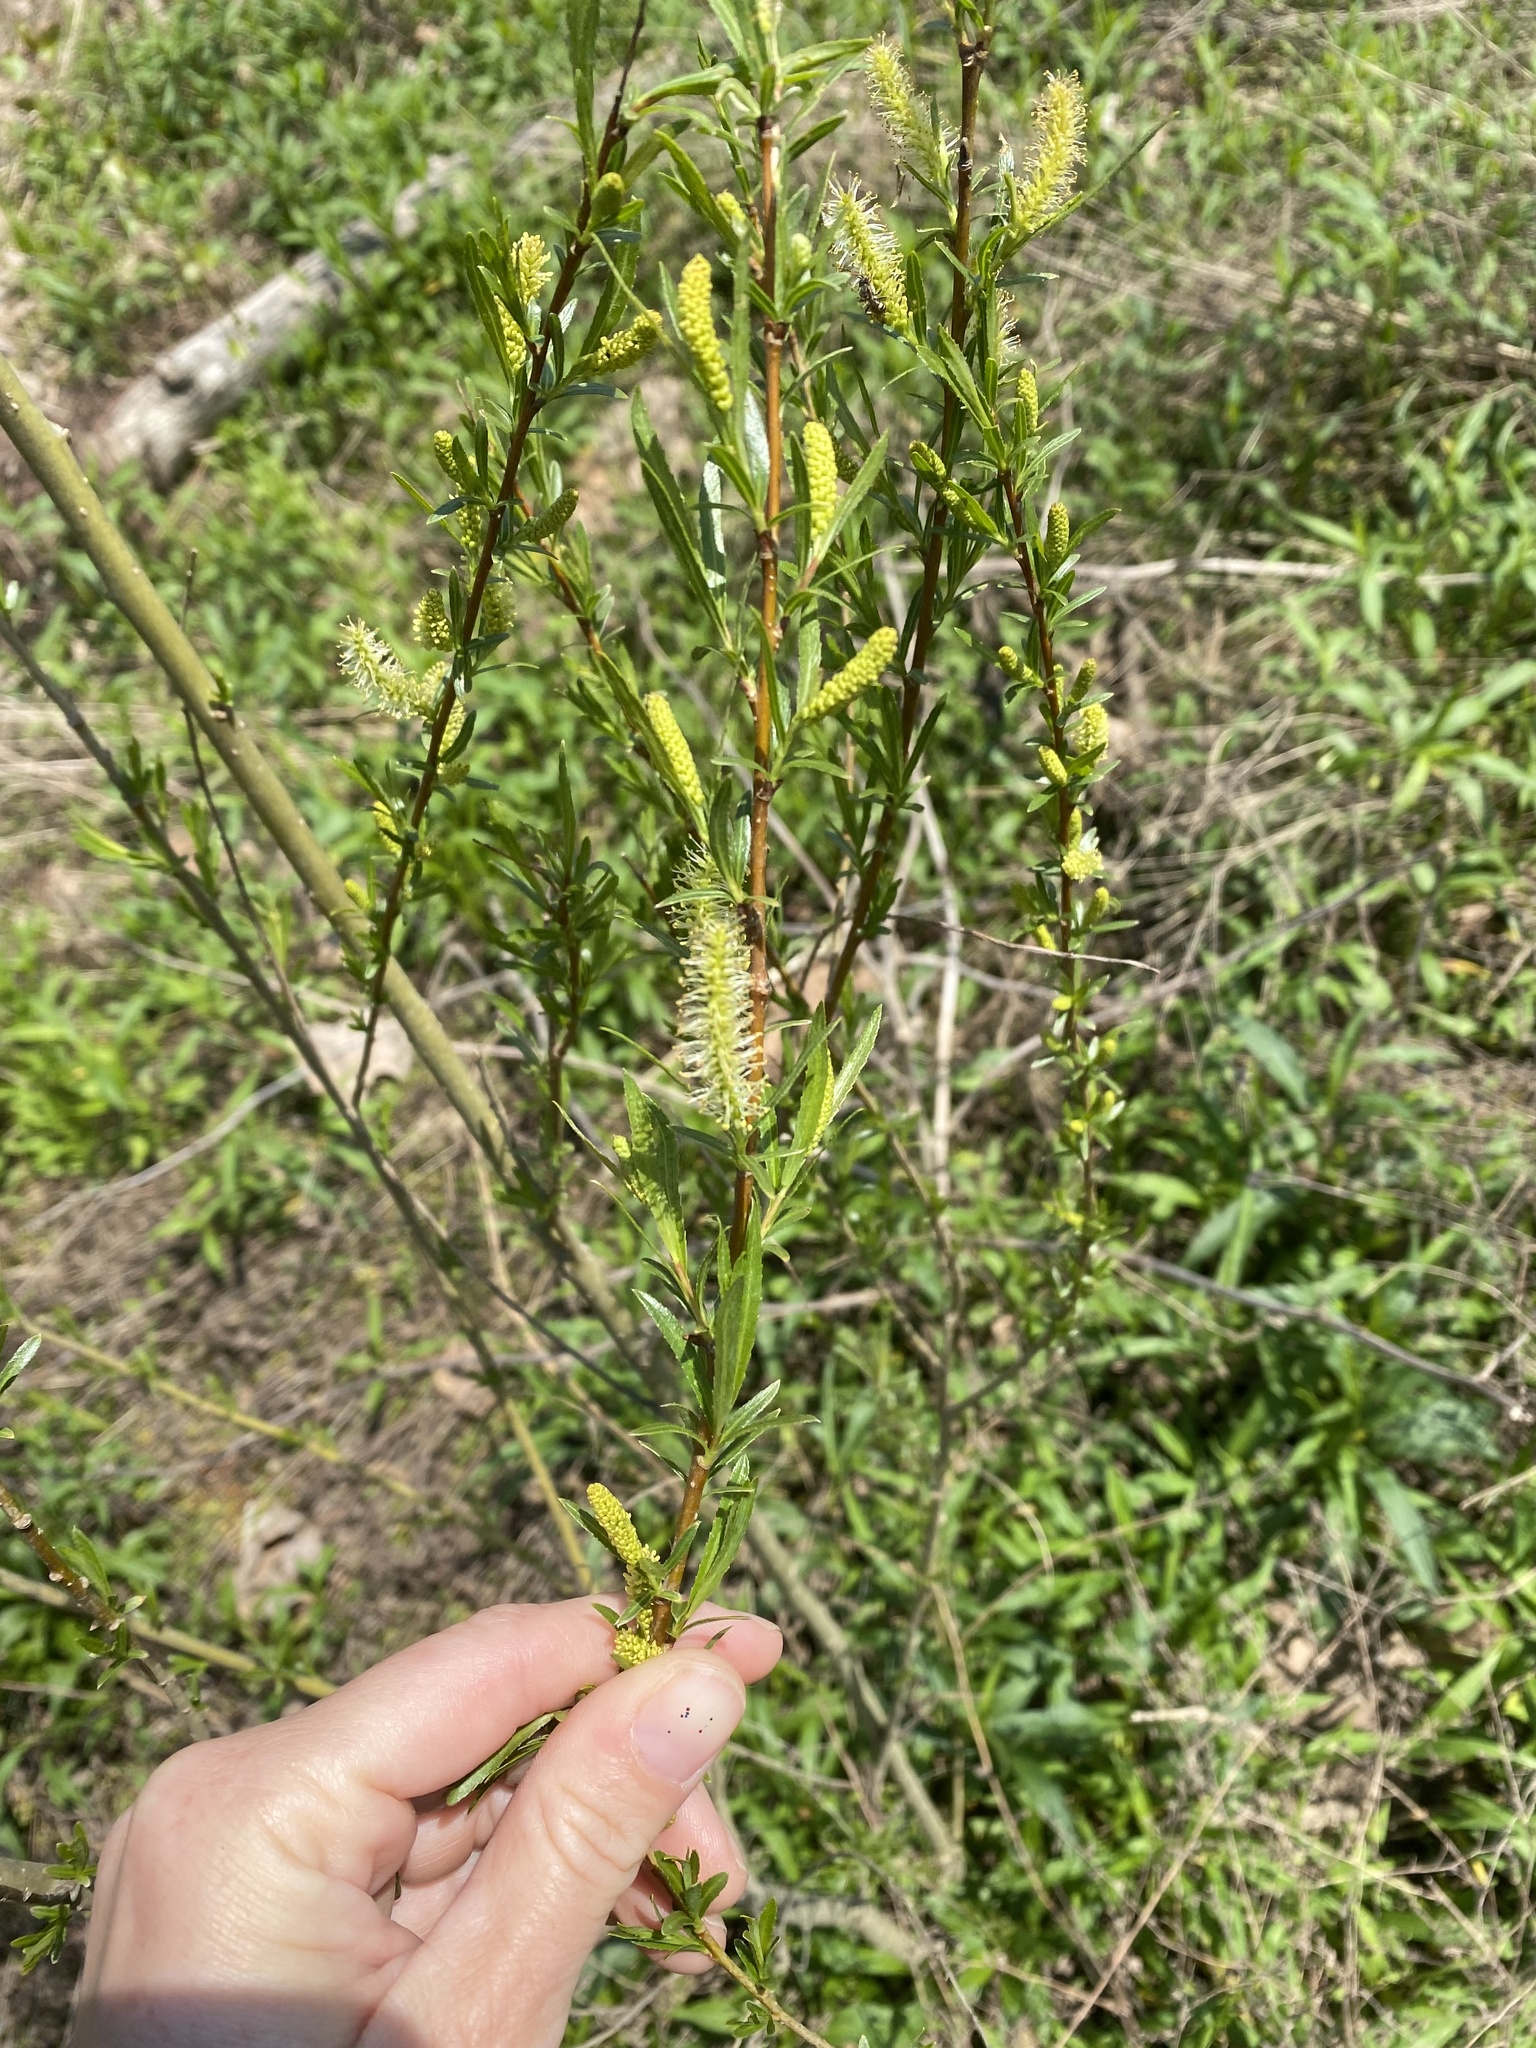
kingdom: Plantae
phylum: Tracheophyta
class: Magnoliopsida
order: Malpighiales
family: Salicaceae
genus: Salix
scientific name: Salix nigra
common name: Black willow
